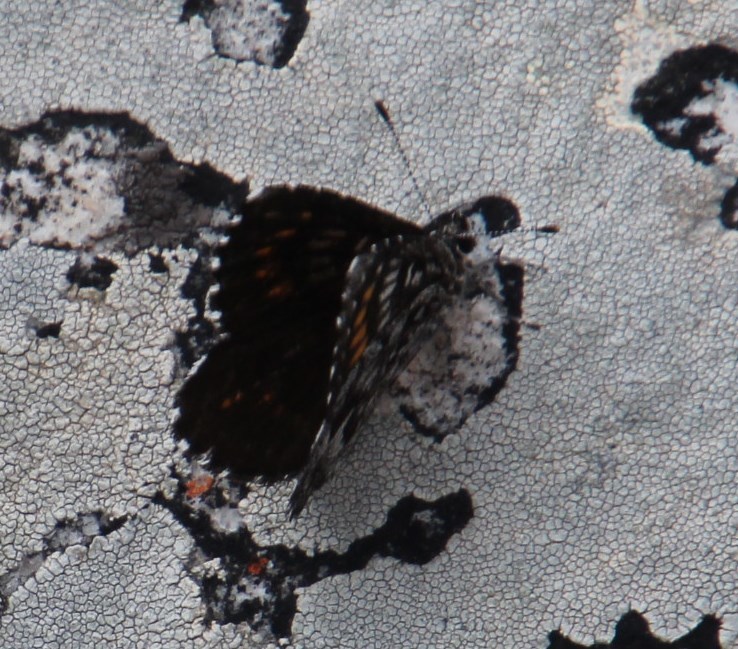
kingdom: Animalia
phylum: Arthropoda
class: Insecta
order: Lepidoptera
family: Lycaenidae
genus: Durbaniopsis
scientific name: Durbaniopsis saga
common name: Boland rocksitter
